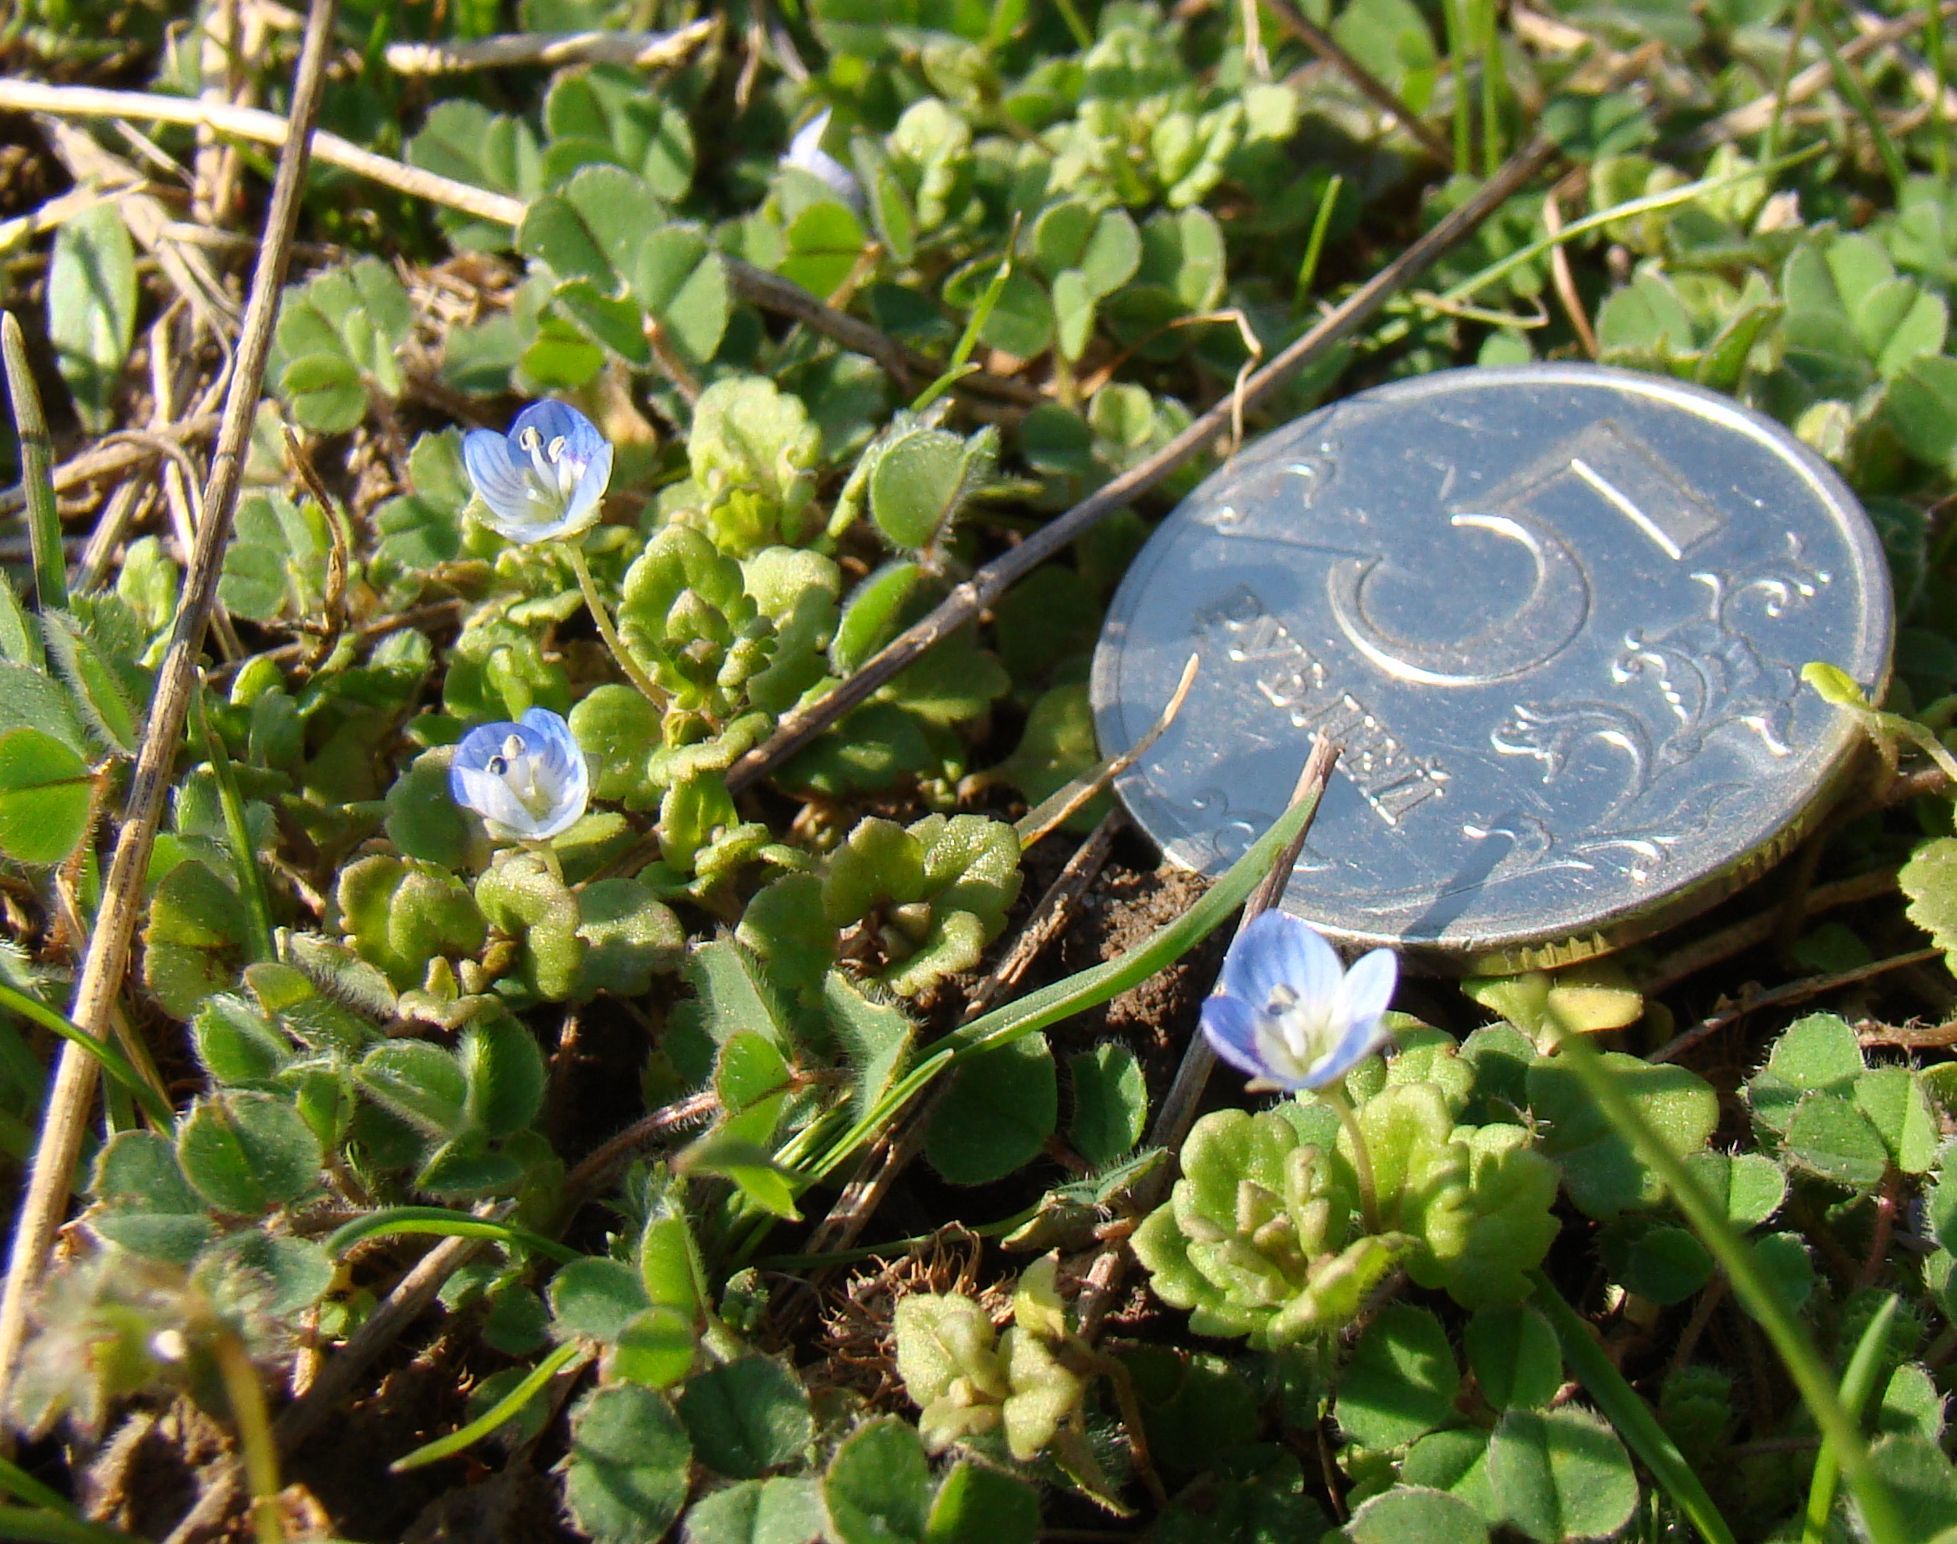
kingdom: Plantae
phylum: Tracheophyta
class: Magnoliopsida
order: Lamiales
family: Plantaginaceae
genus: Veronica
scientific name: Veronica polita
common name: Grey field-speedwell
